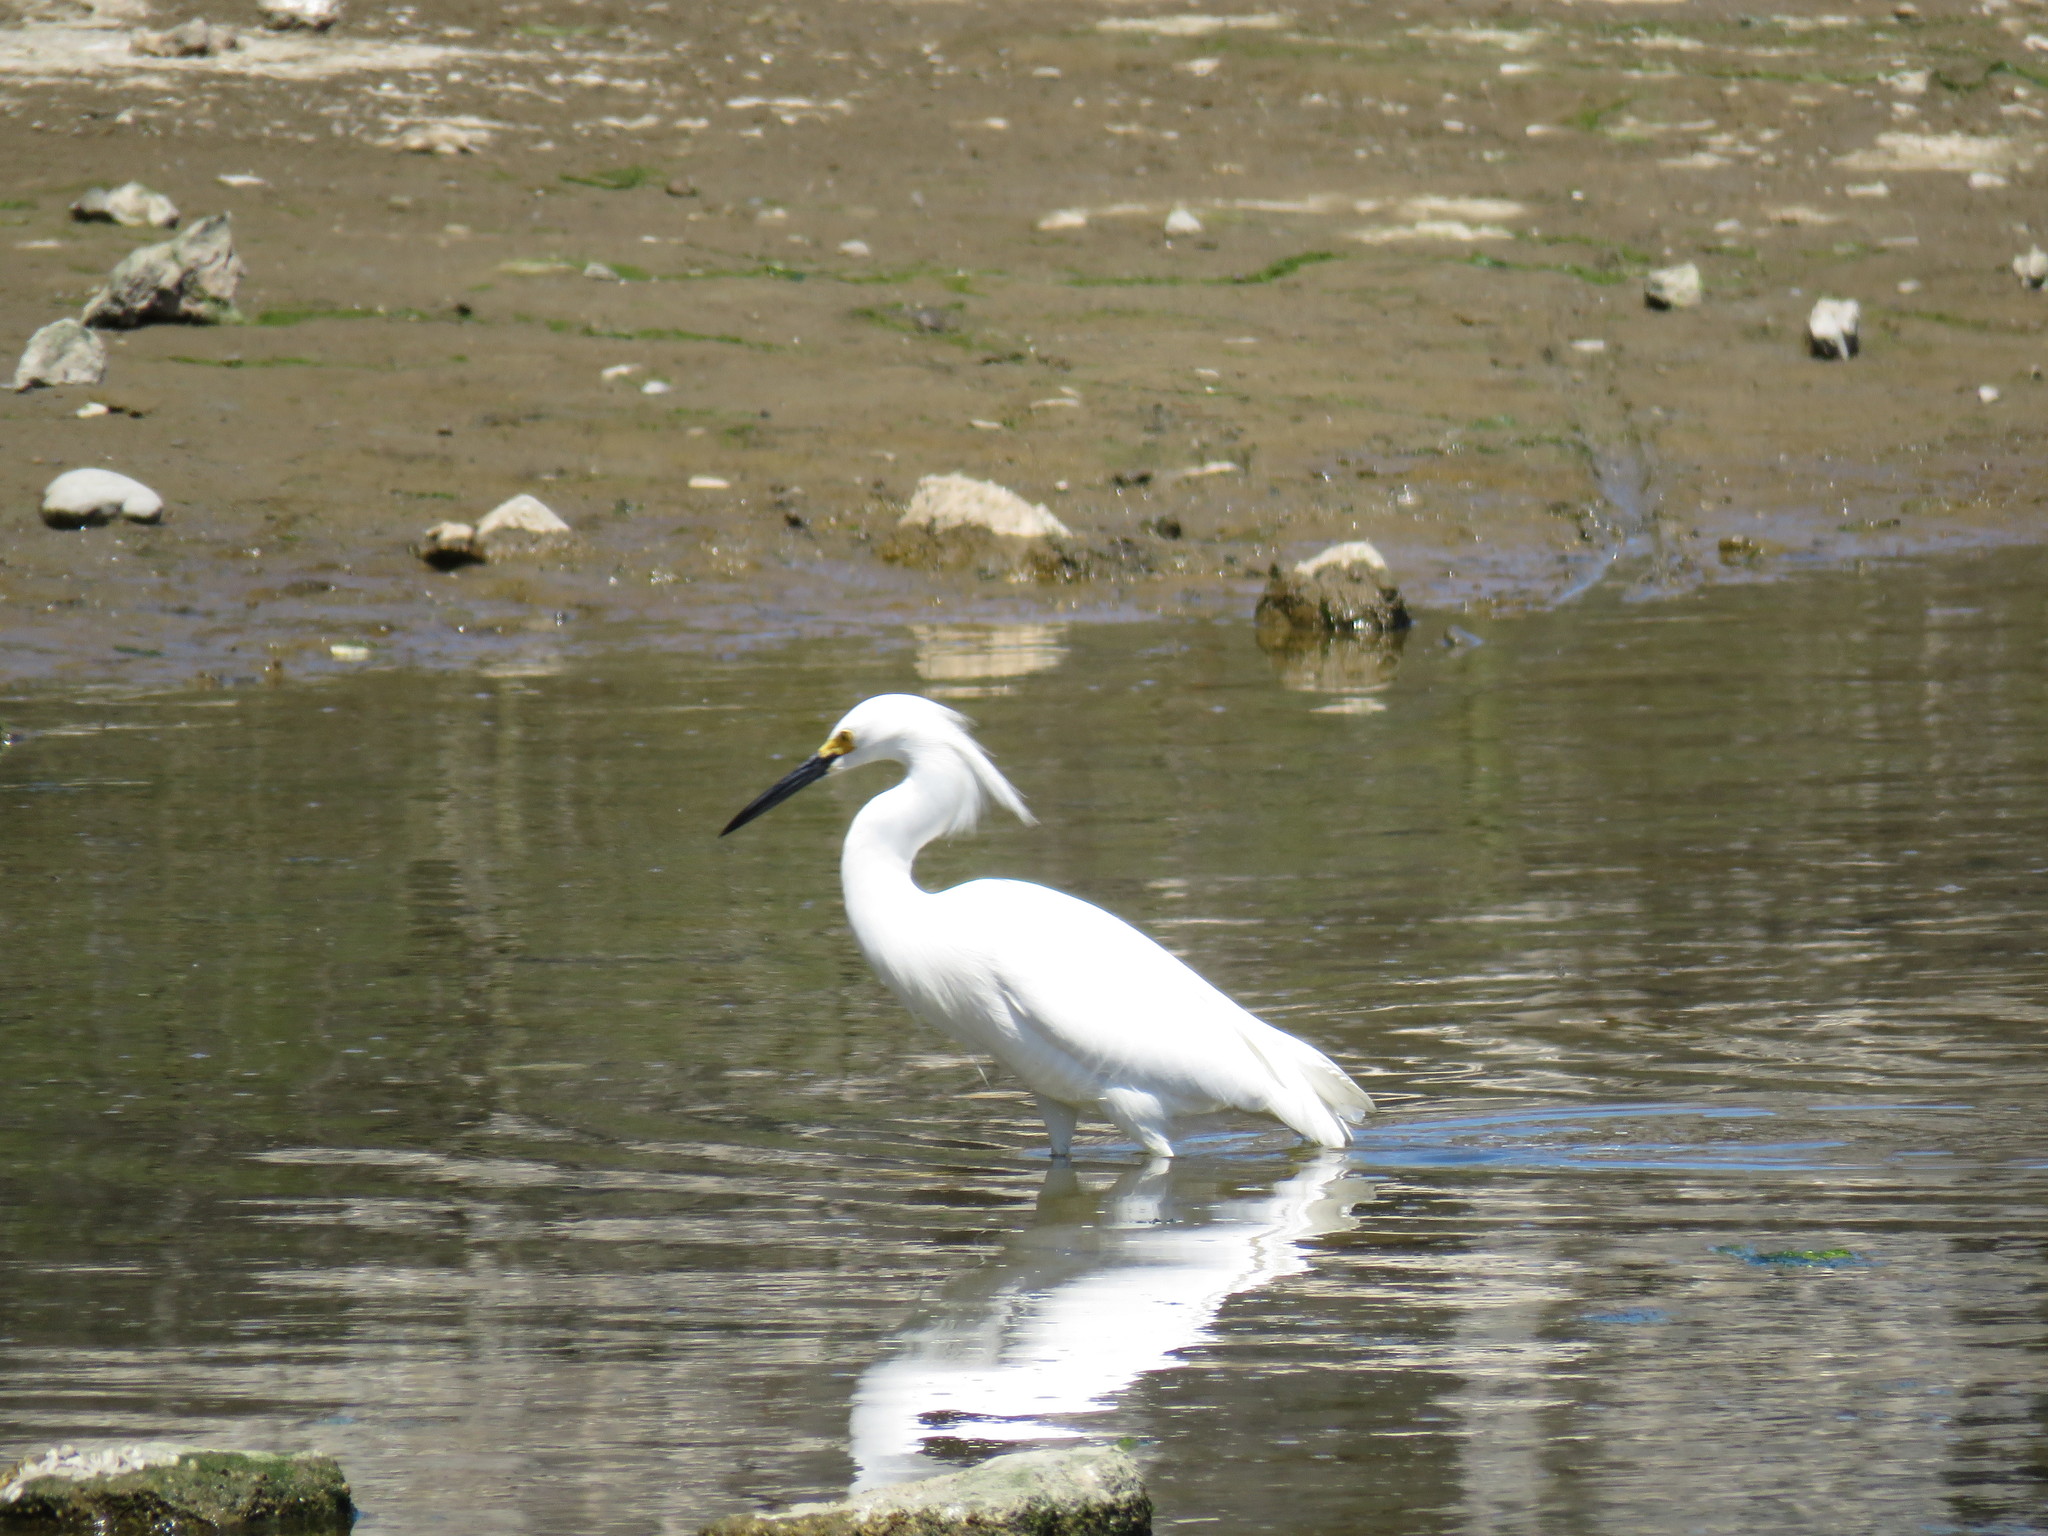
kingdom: Animalia
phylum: Chordata
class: Aves
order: Pelecaniformes
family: Ardeidae
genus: Egretta
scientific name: Egretta thula
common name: Snowy egret
